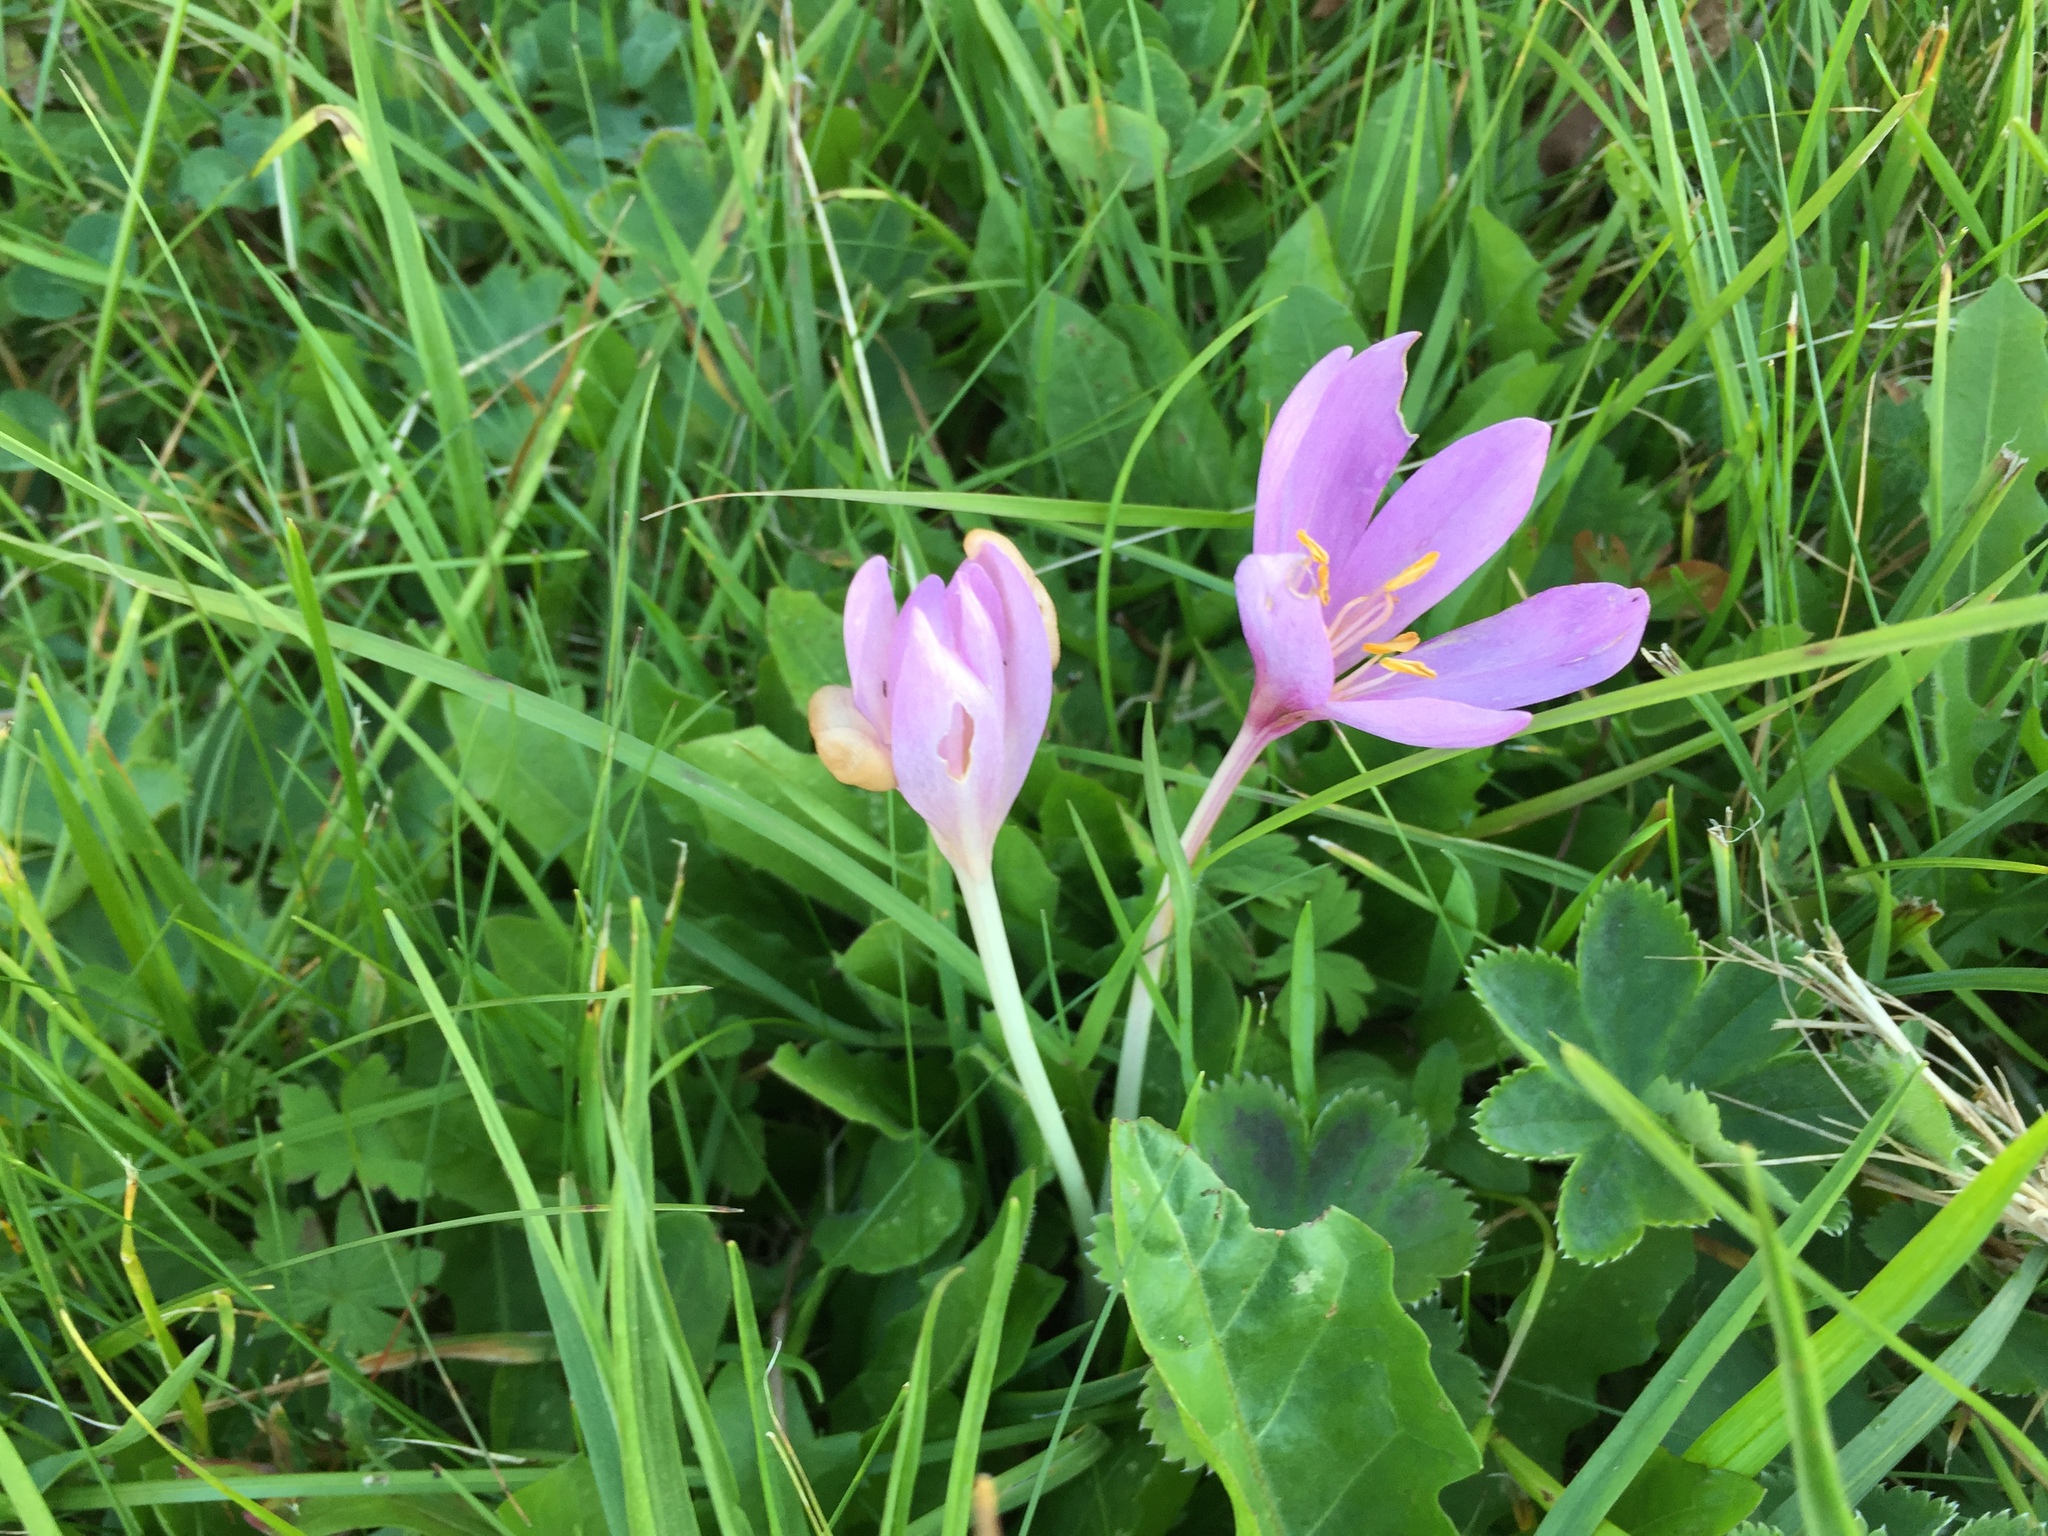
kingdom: Plantae
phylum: Tracheophyta
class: Liliopsida
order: Liliales
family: Colchicaceae
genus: Colchicum
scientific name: Colchicum autumnale
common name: Autumn crocus
